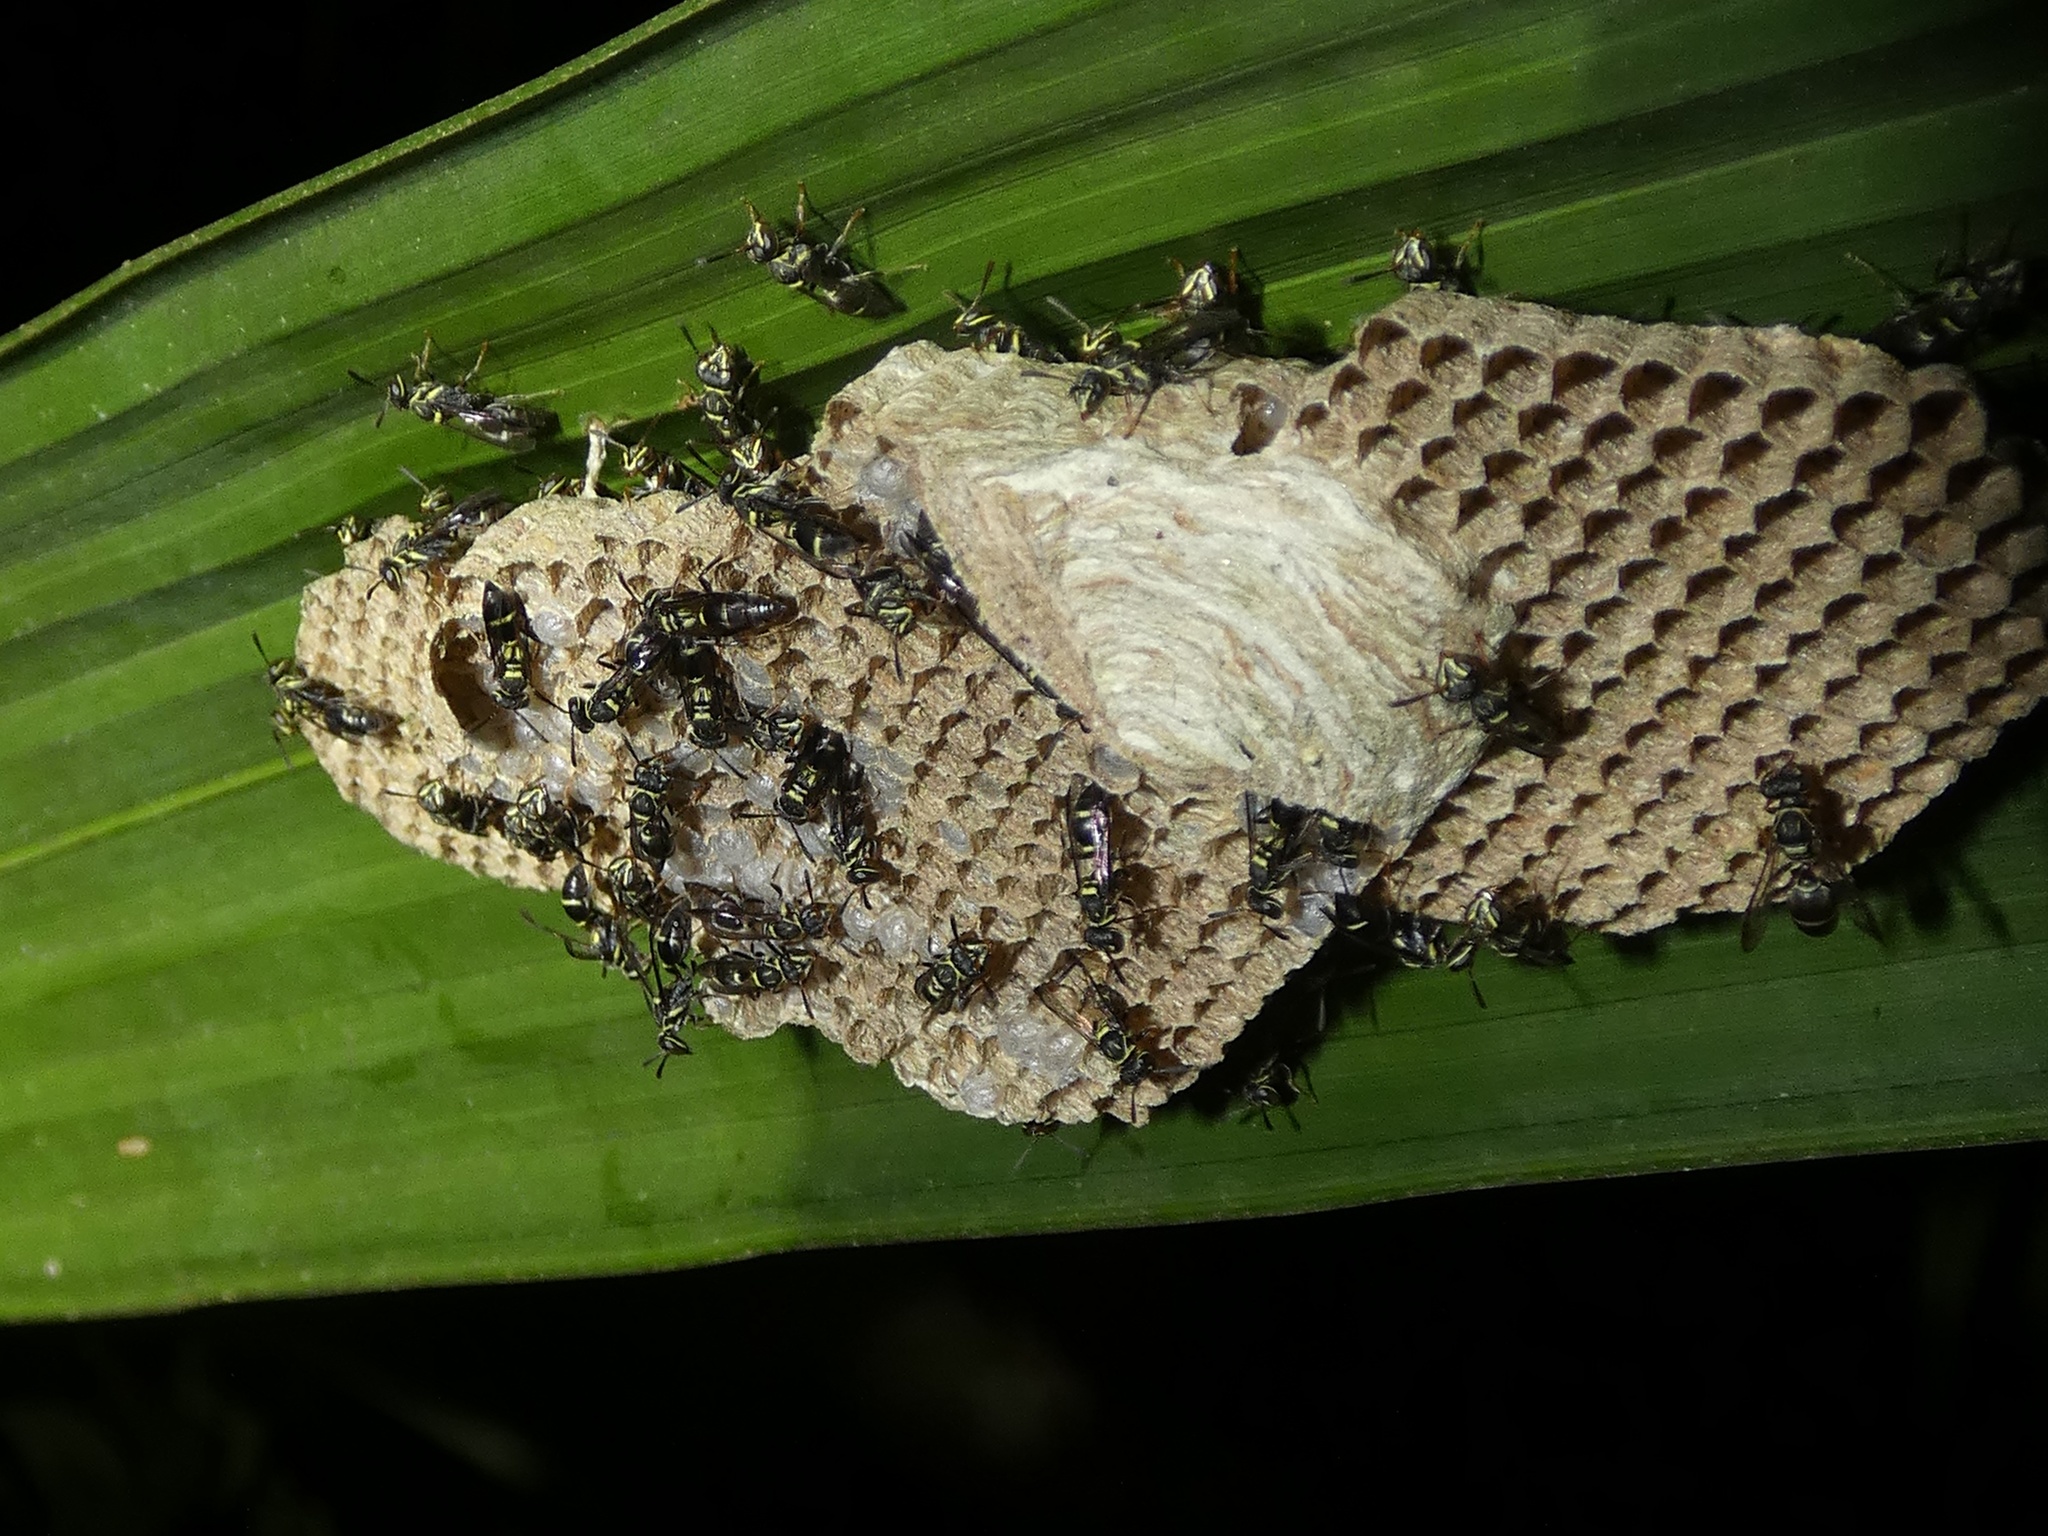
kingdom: Animalia
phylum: Arthropoda
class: Insecta
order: Hymenoptera
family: Vespidae
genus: Protopolybia
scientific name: Protopolybia collombiana
